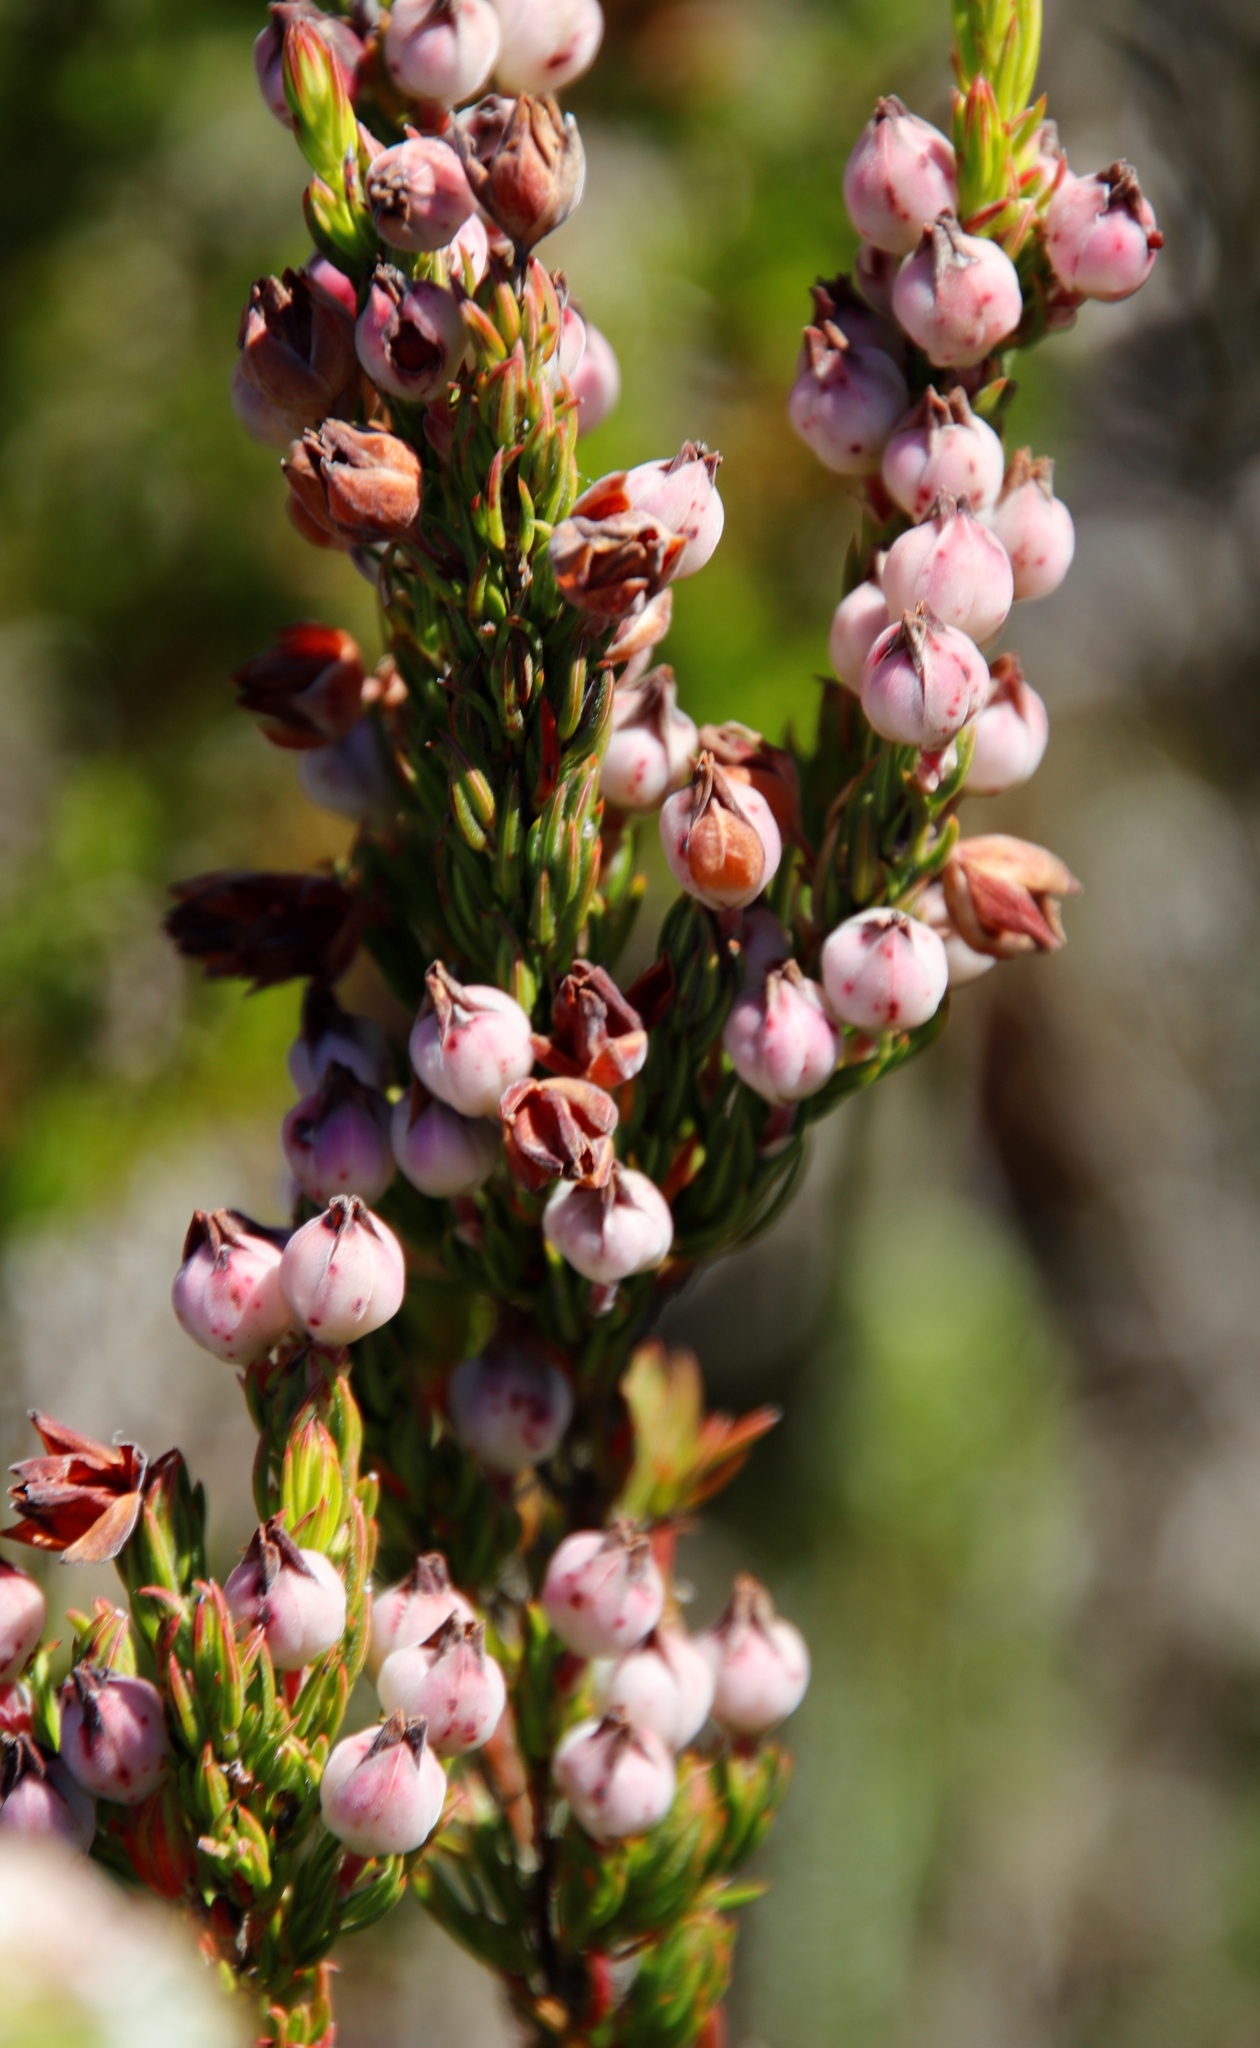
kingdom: Plantae
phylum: Tracheophyta
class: Magnoliopsida
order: Ericales
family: Ericaceae
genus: Erica
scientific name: Erica holosericea
